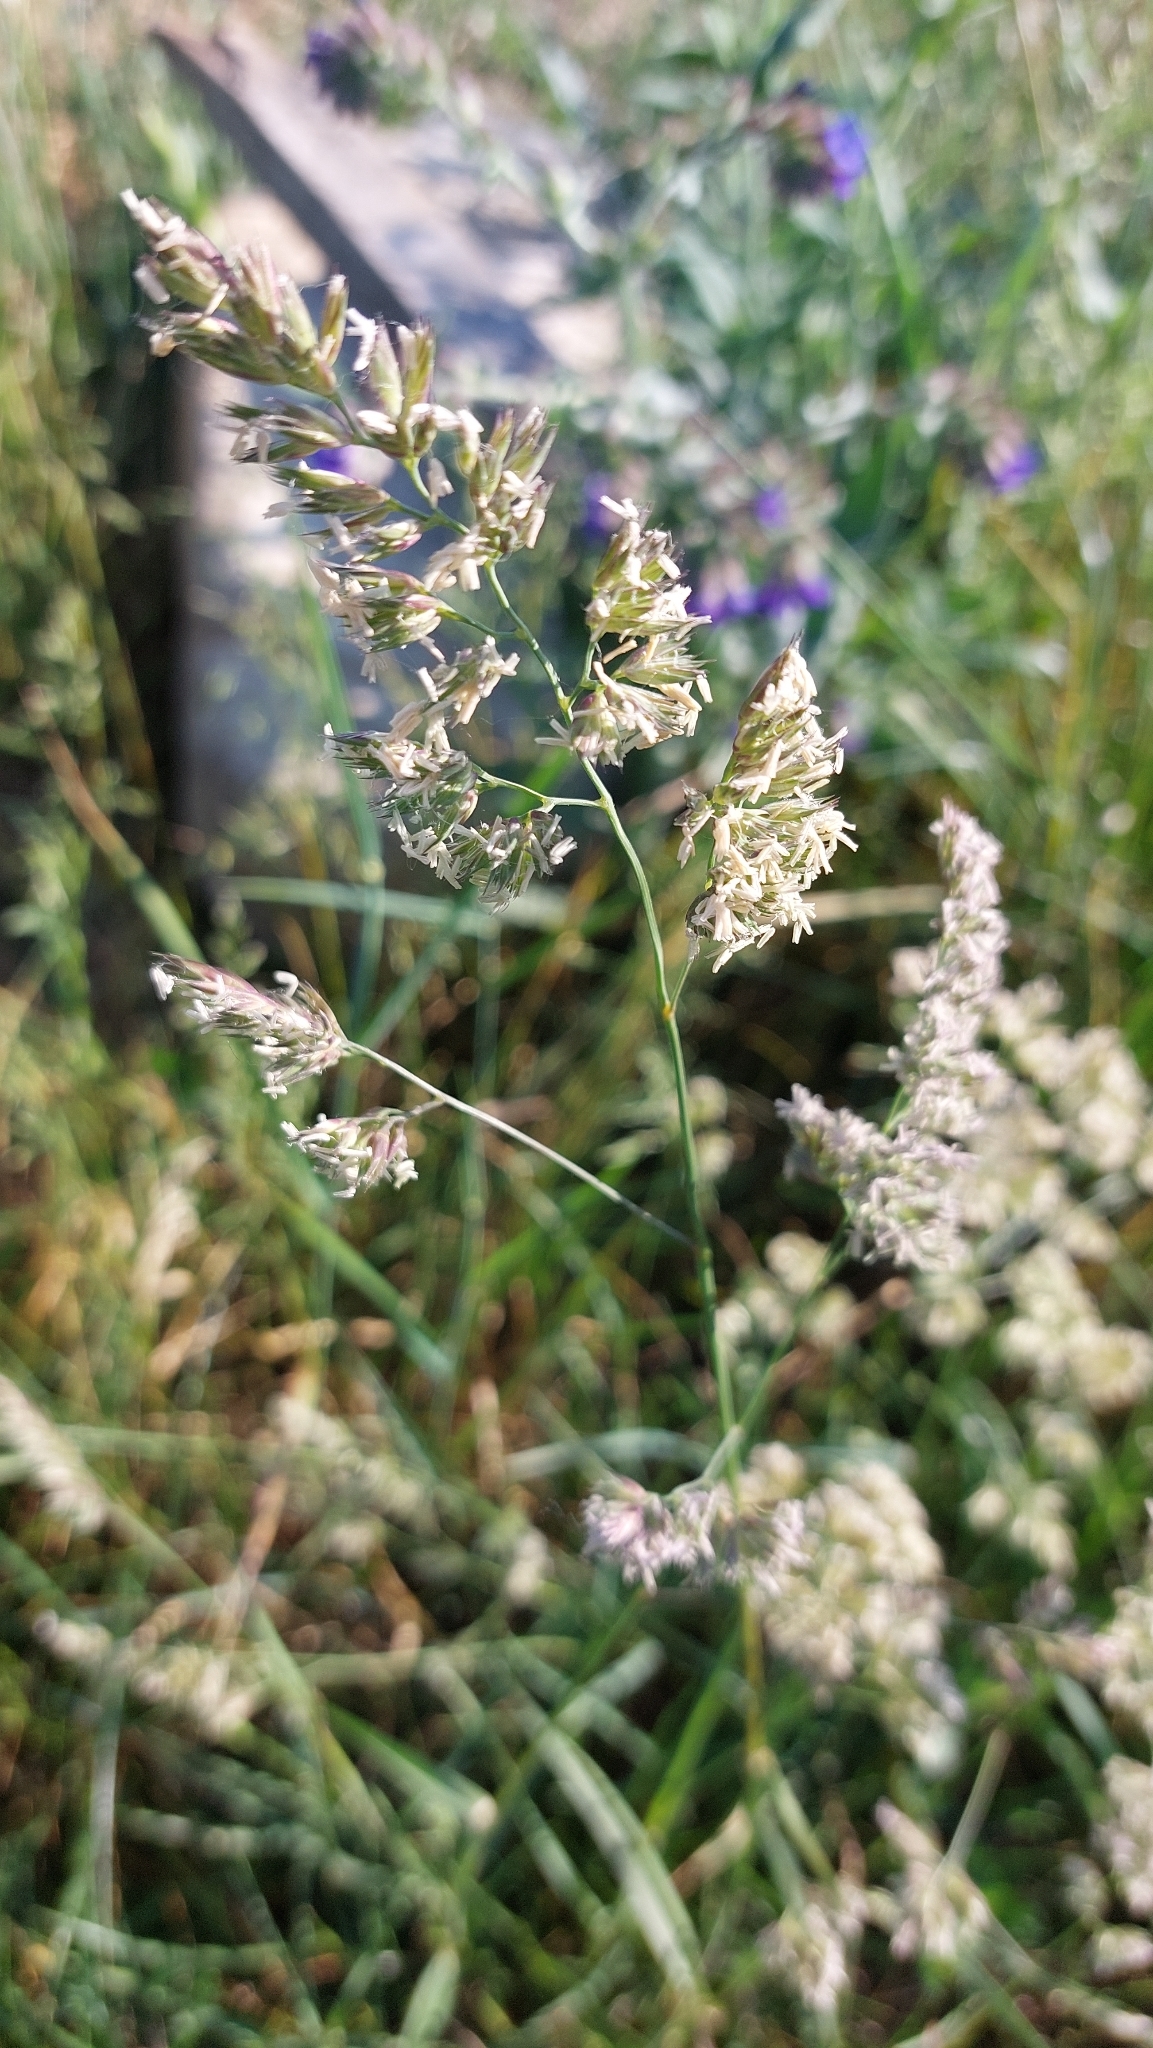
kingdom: Plantae
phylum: Tracheophyta
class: Liliopsida
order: Poales
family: Poaceae
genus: Dactylis
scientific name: Dactylis glomerata
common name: Orchardgrass
